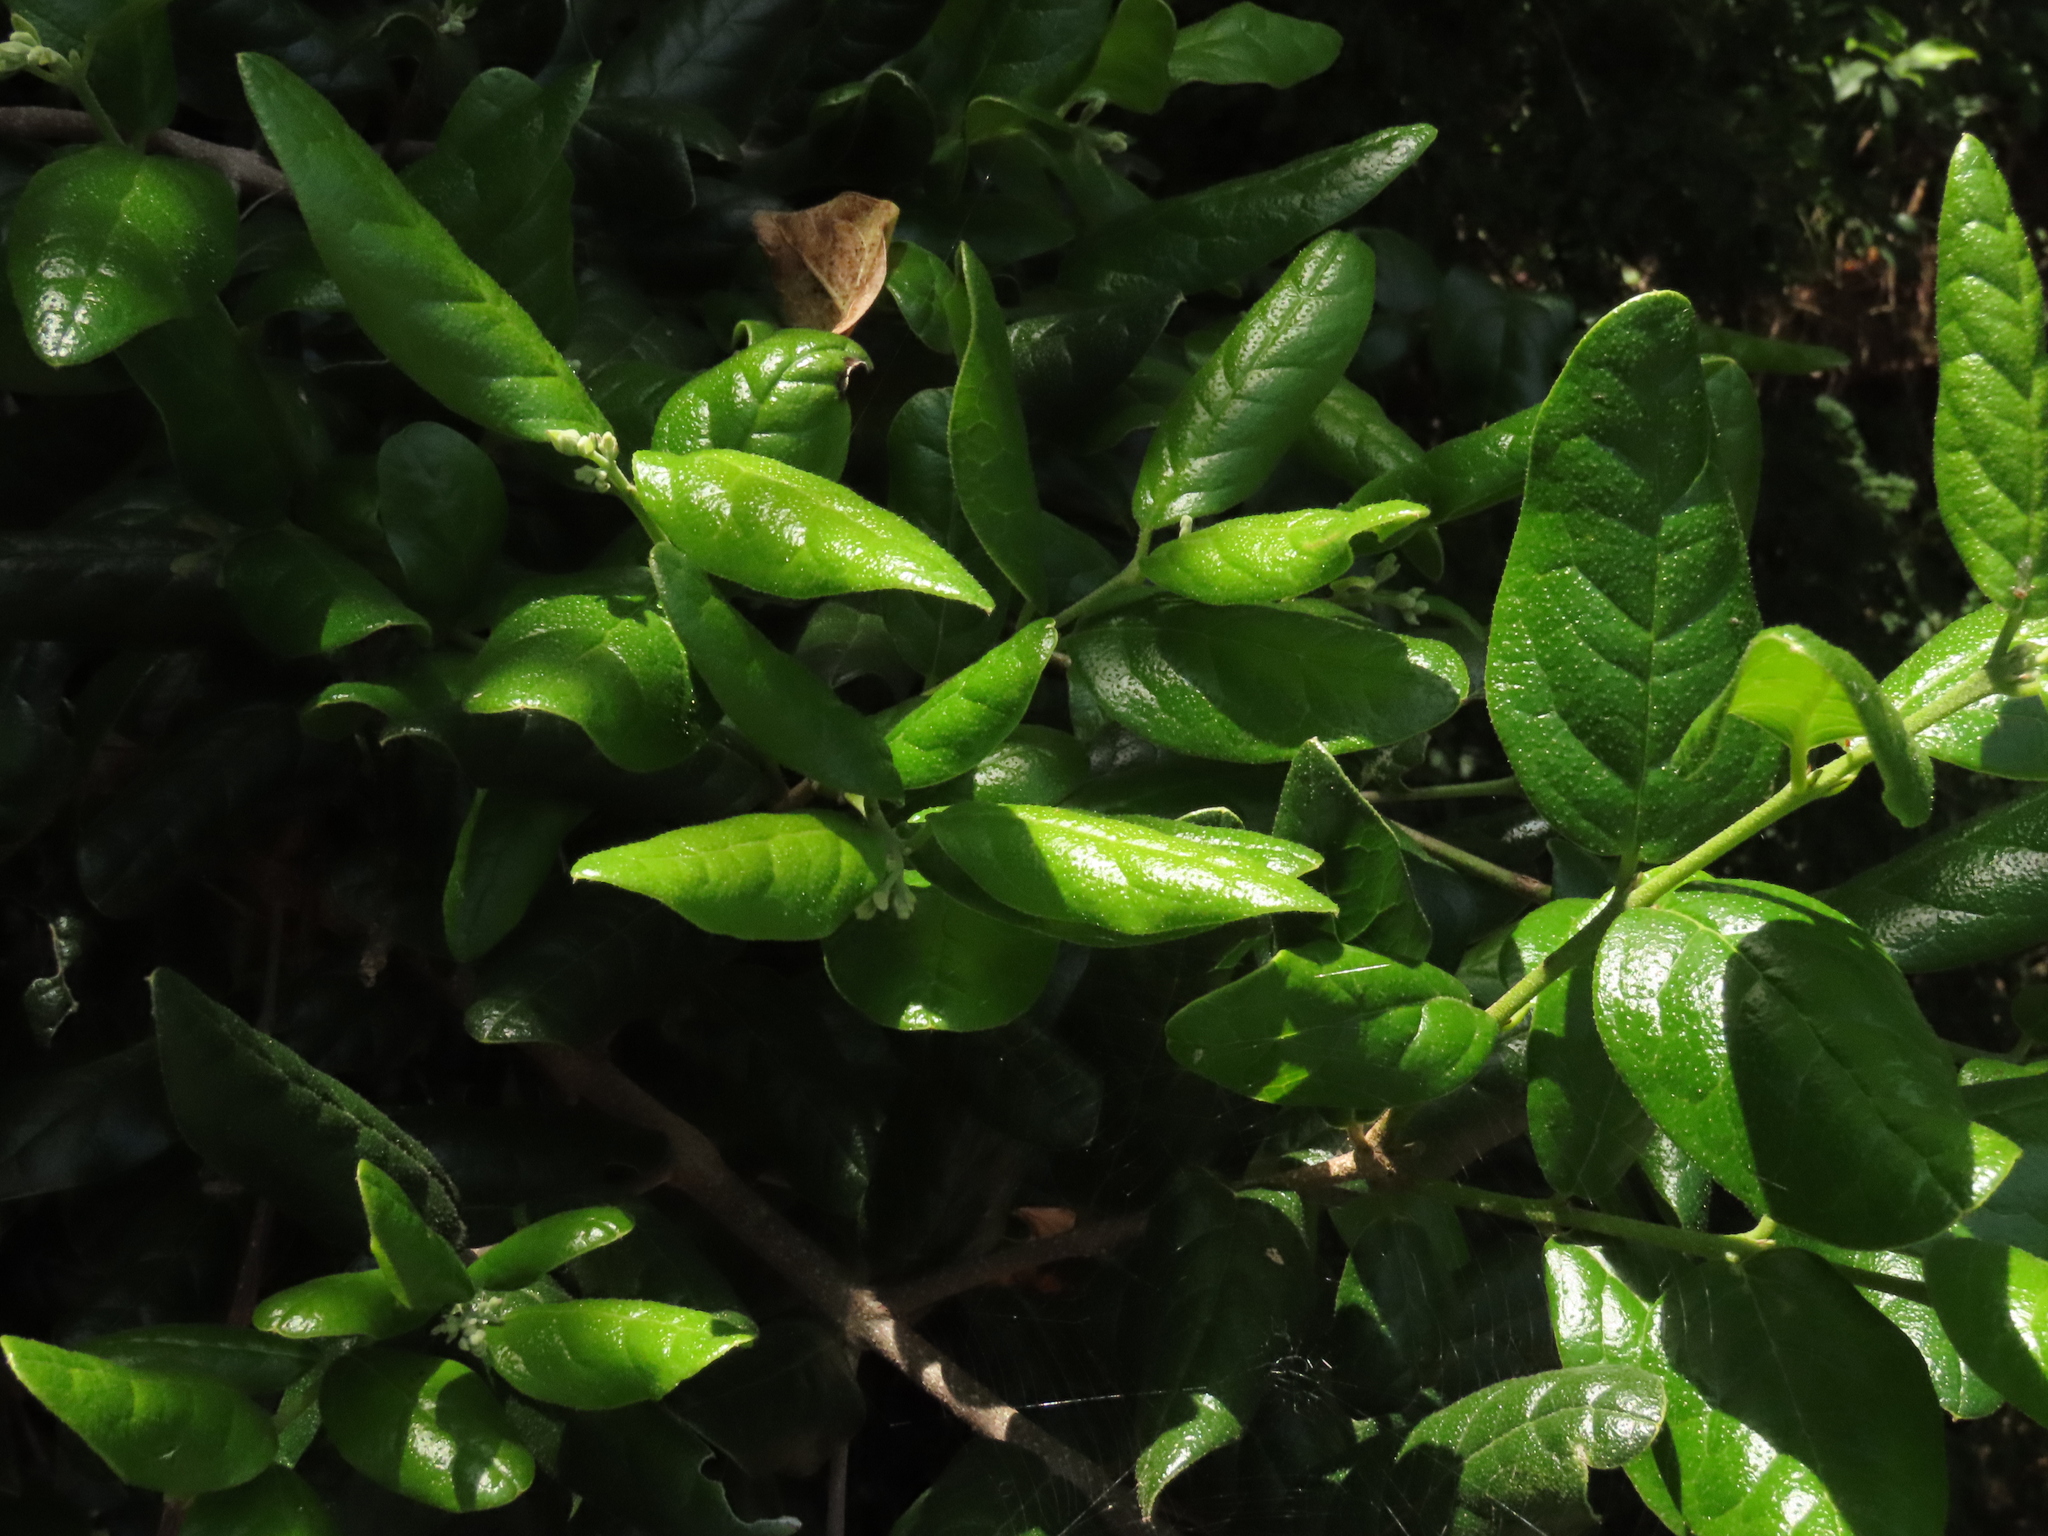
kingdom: Plantae
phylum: Tracheophyta
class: Magnoliopsida
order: Laurales
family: Monimiaceae
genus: Peumus
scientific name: Peumus boldus
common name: Boldo
